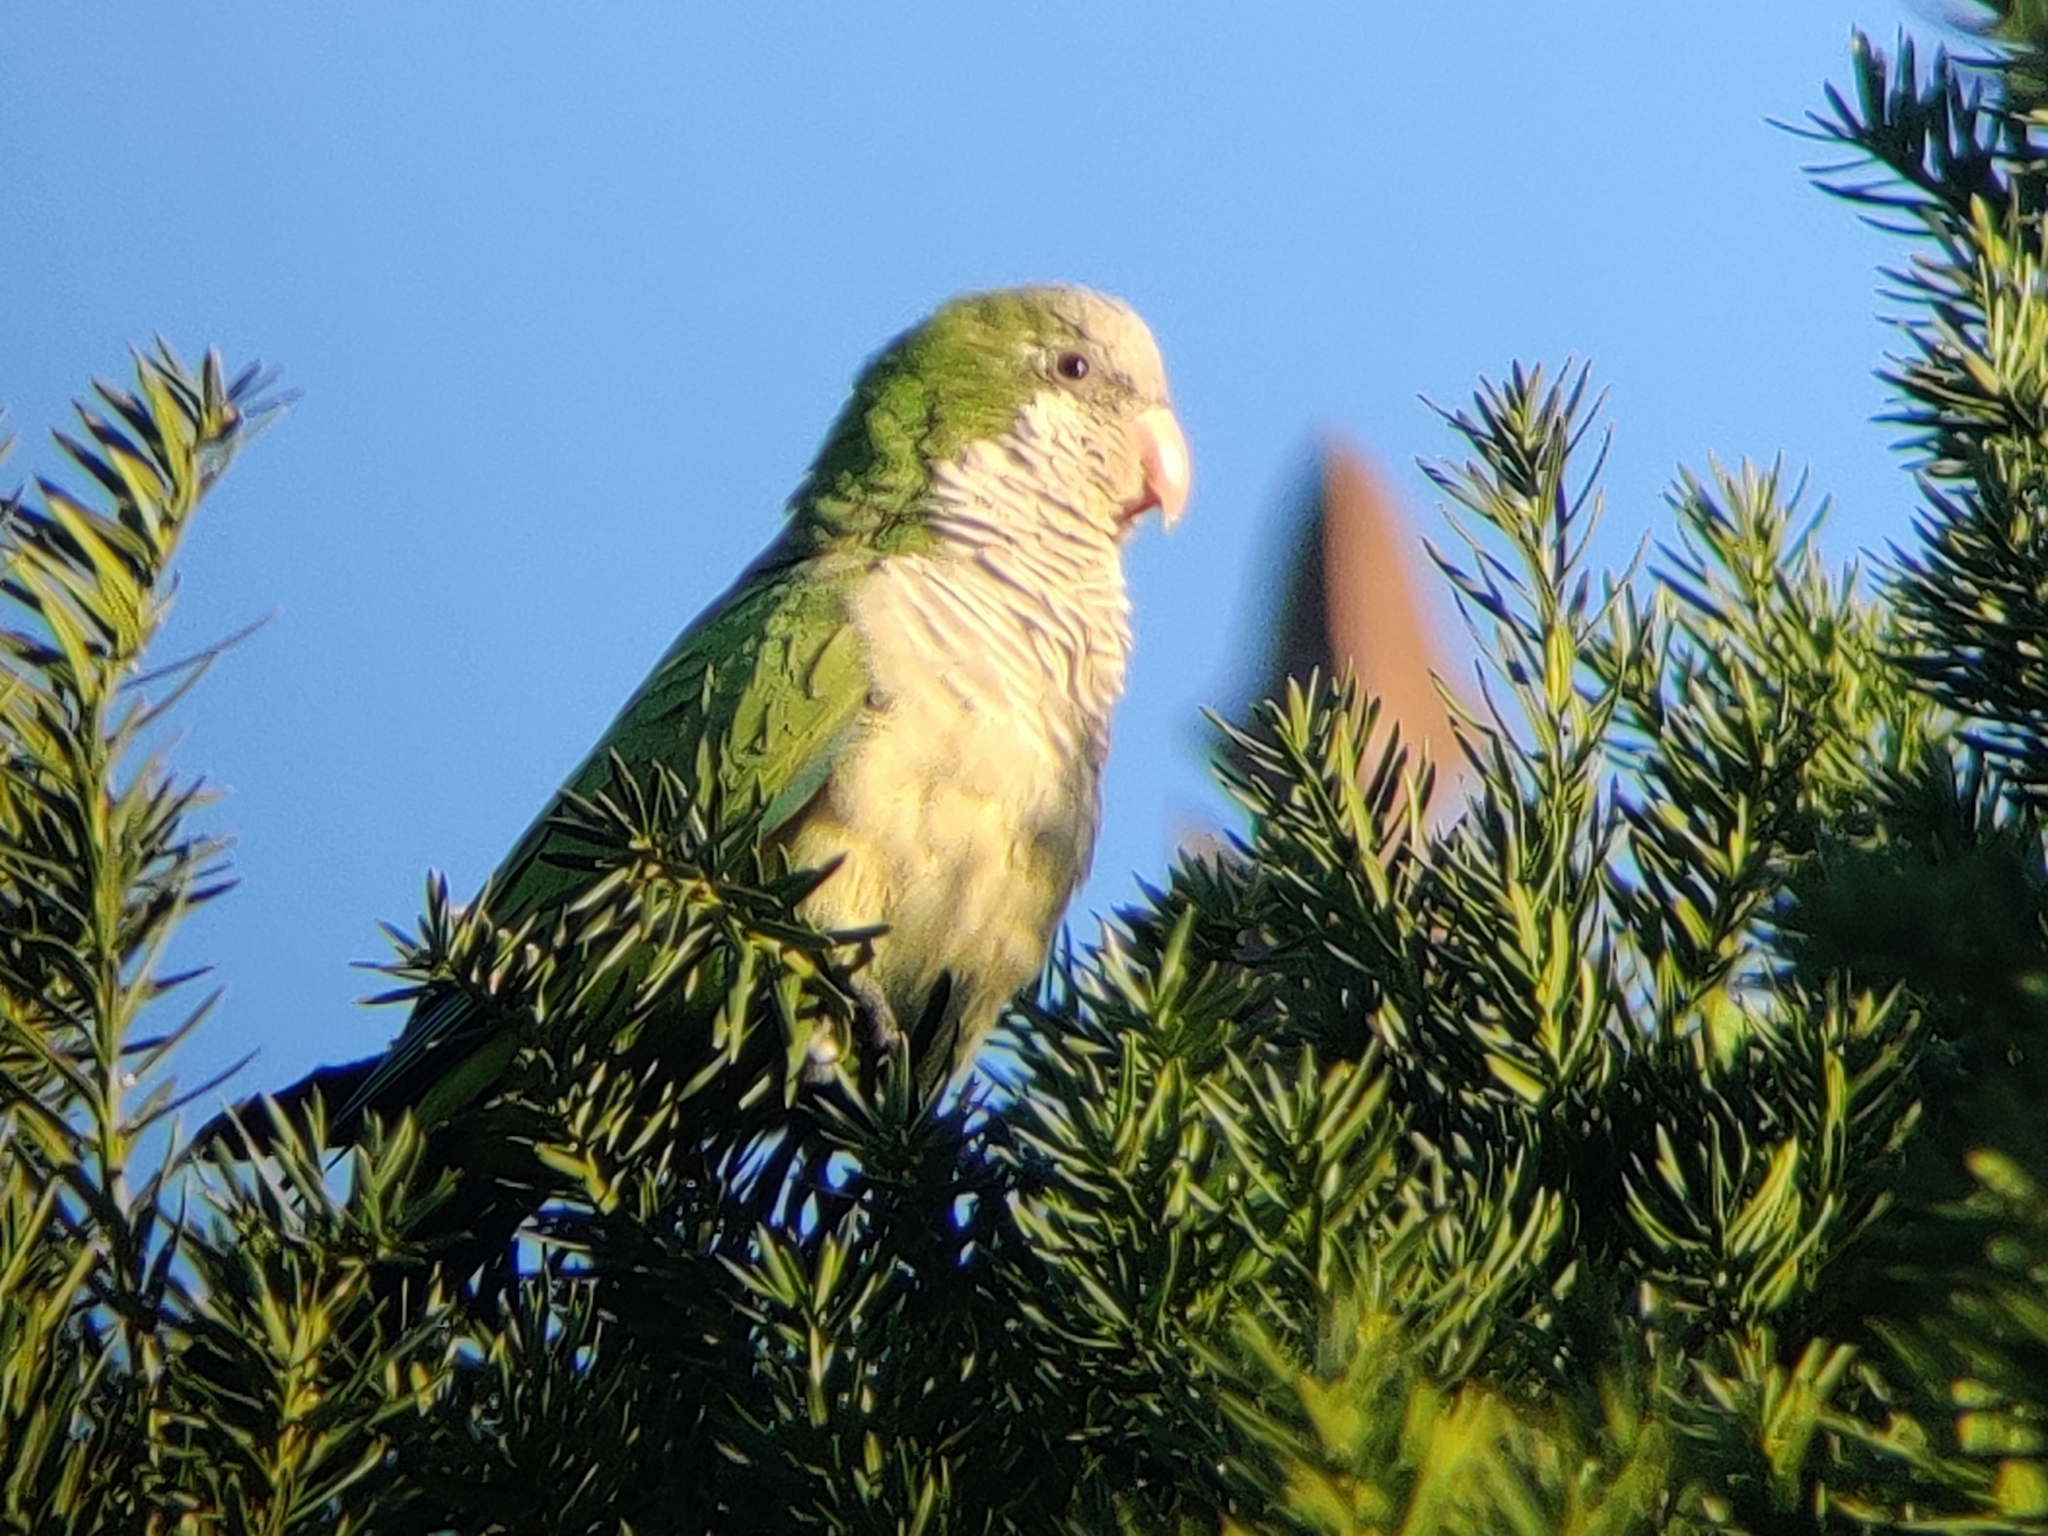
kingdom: Animalia
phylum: Chordata
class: Aves
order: Psittaciformes
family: Psittacidae
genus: Myiopsitta
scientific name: Myiopsitta monachus
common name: Monk parakeet
